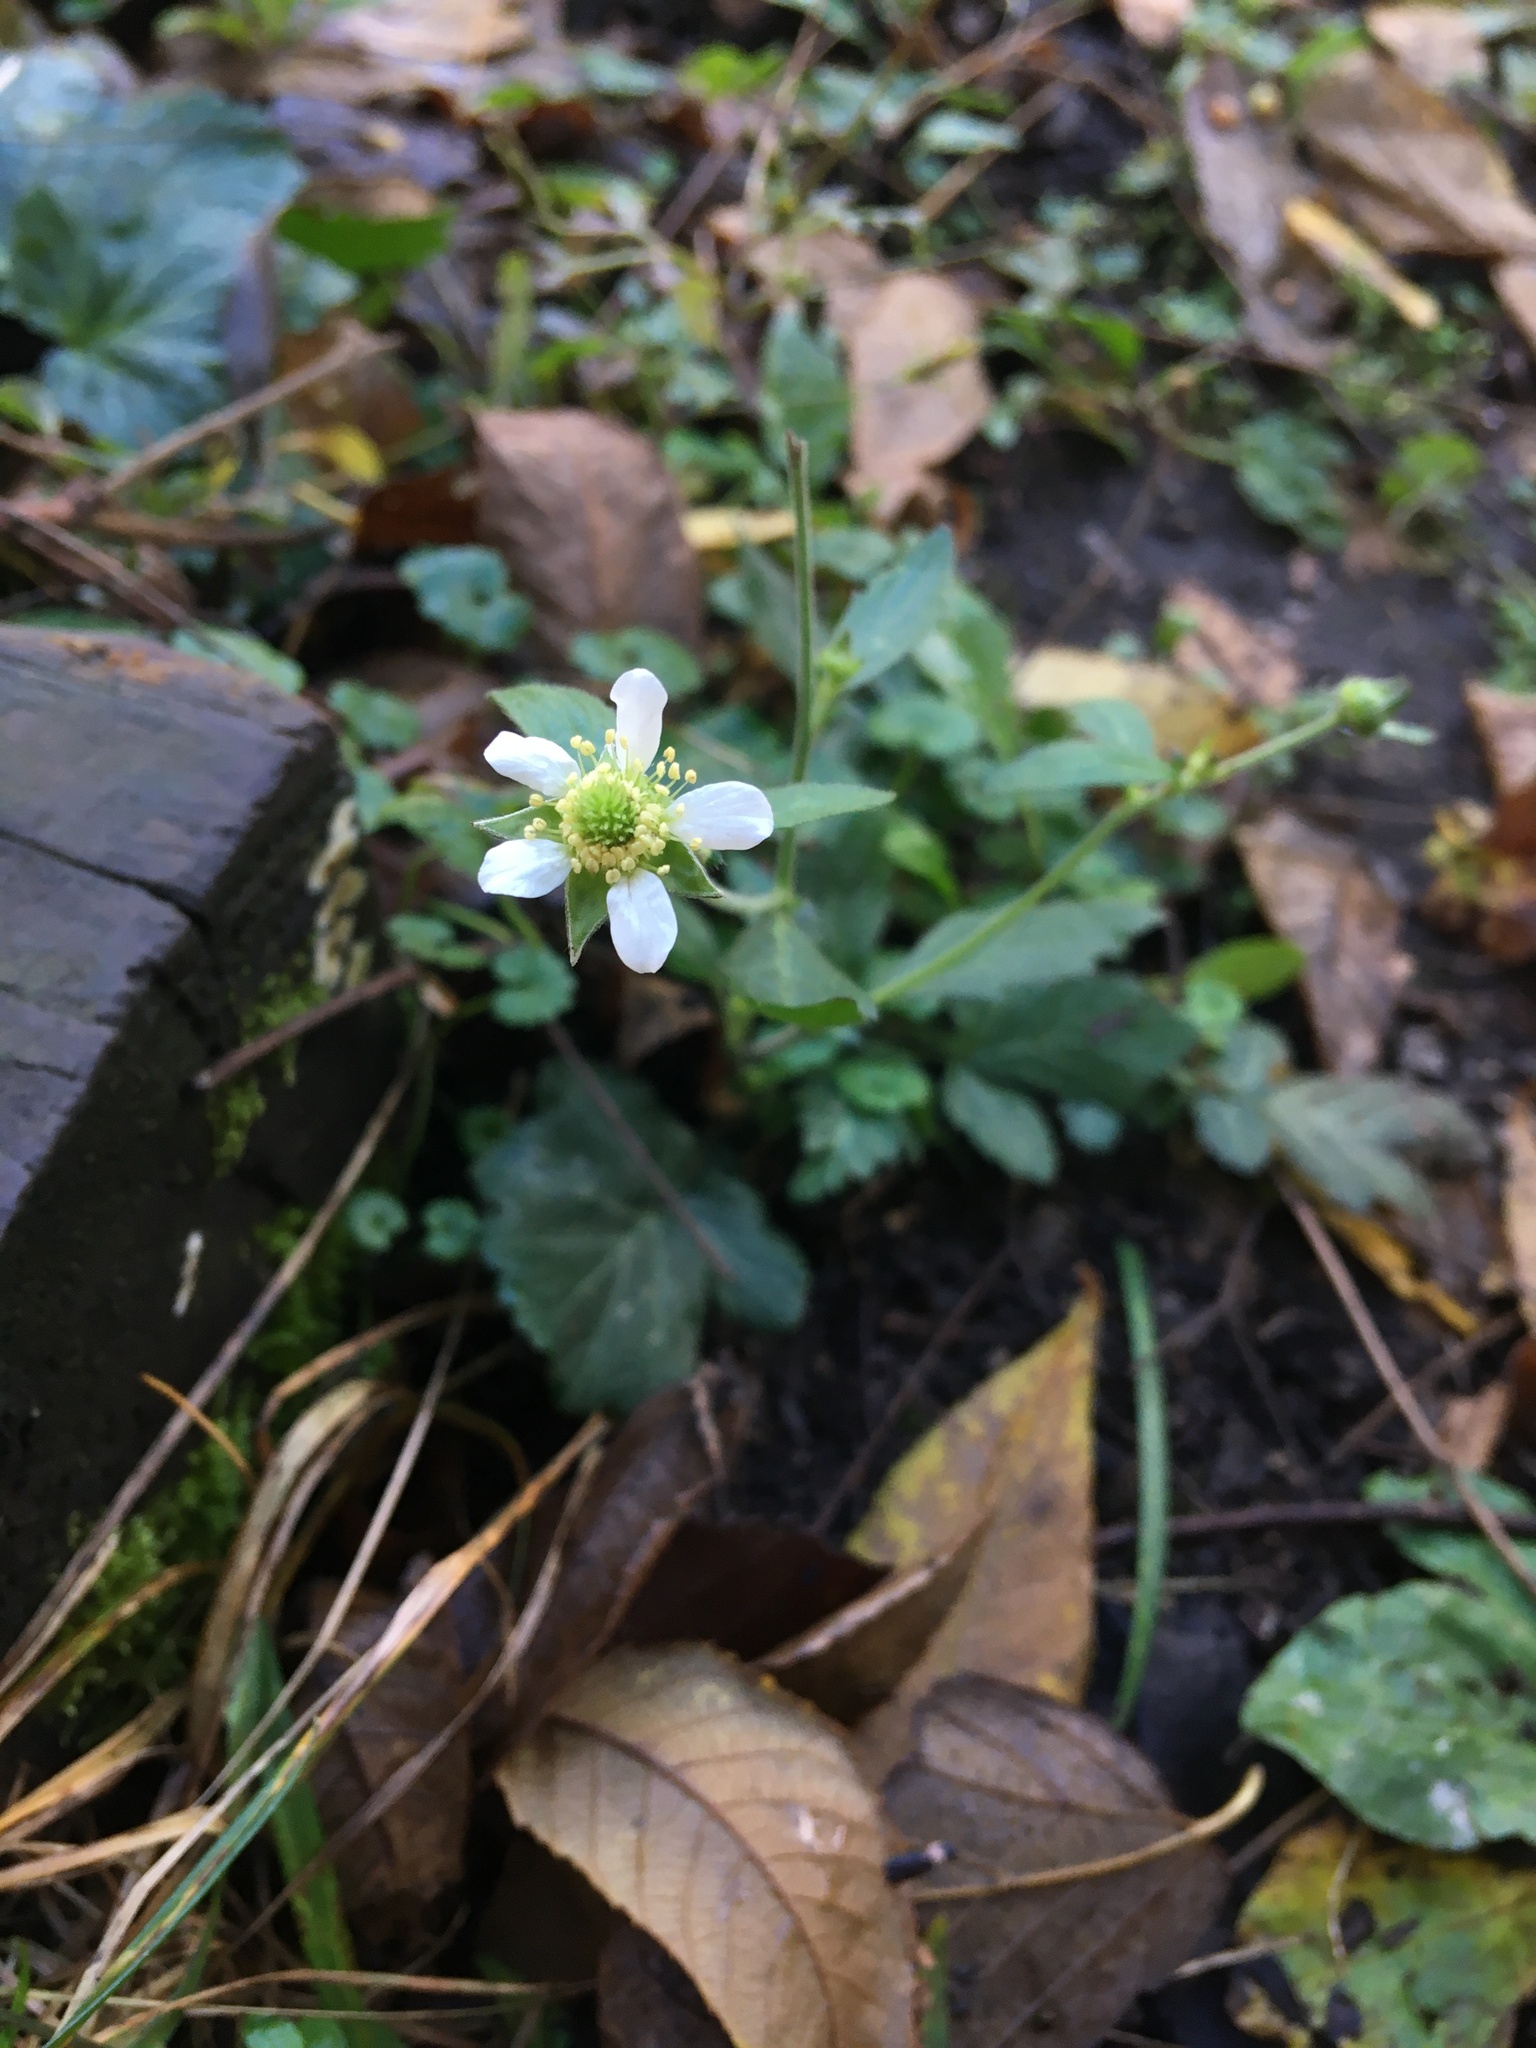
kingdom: Plantae
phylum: Tracheophyta
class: Magnoliopsida
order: Rosales
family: Rosaceae
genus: Geum
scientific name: Geum canadense
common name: White avens
